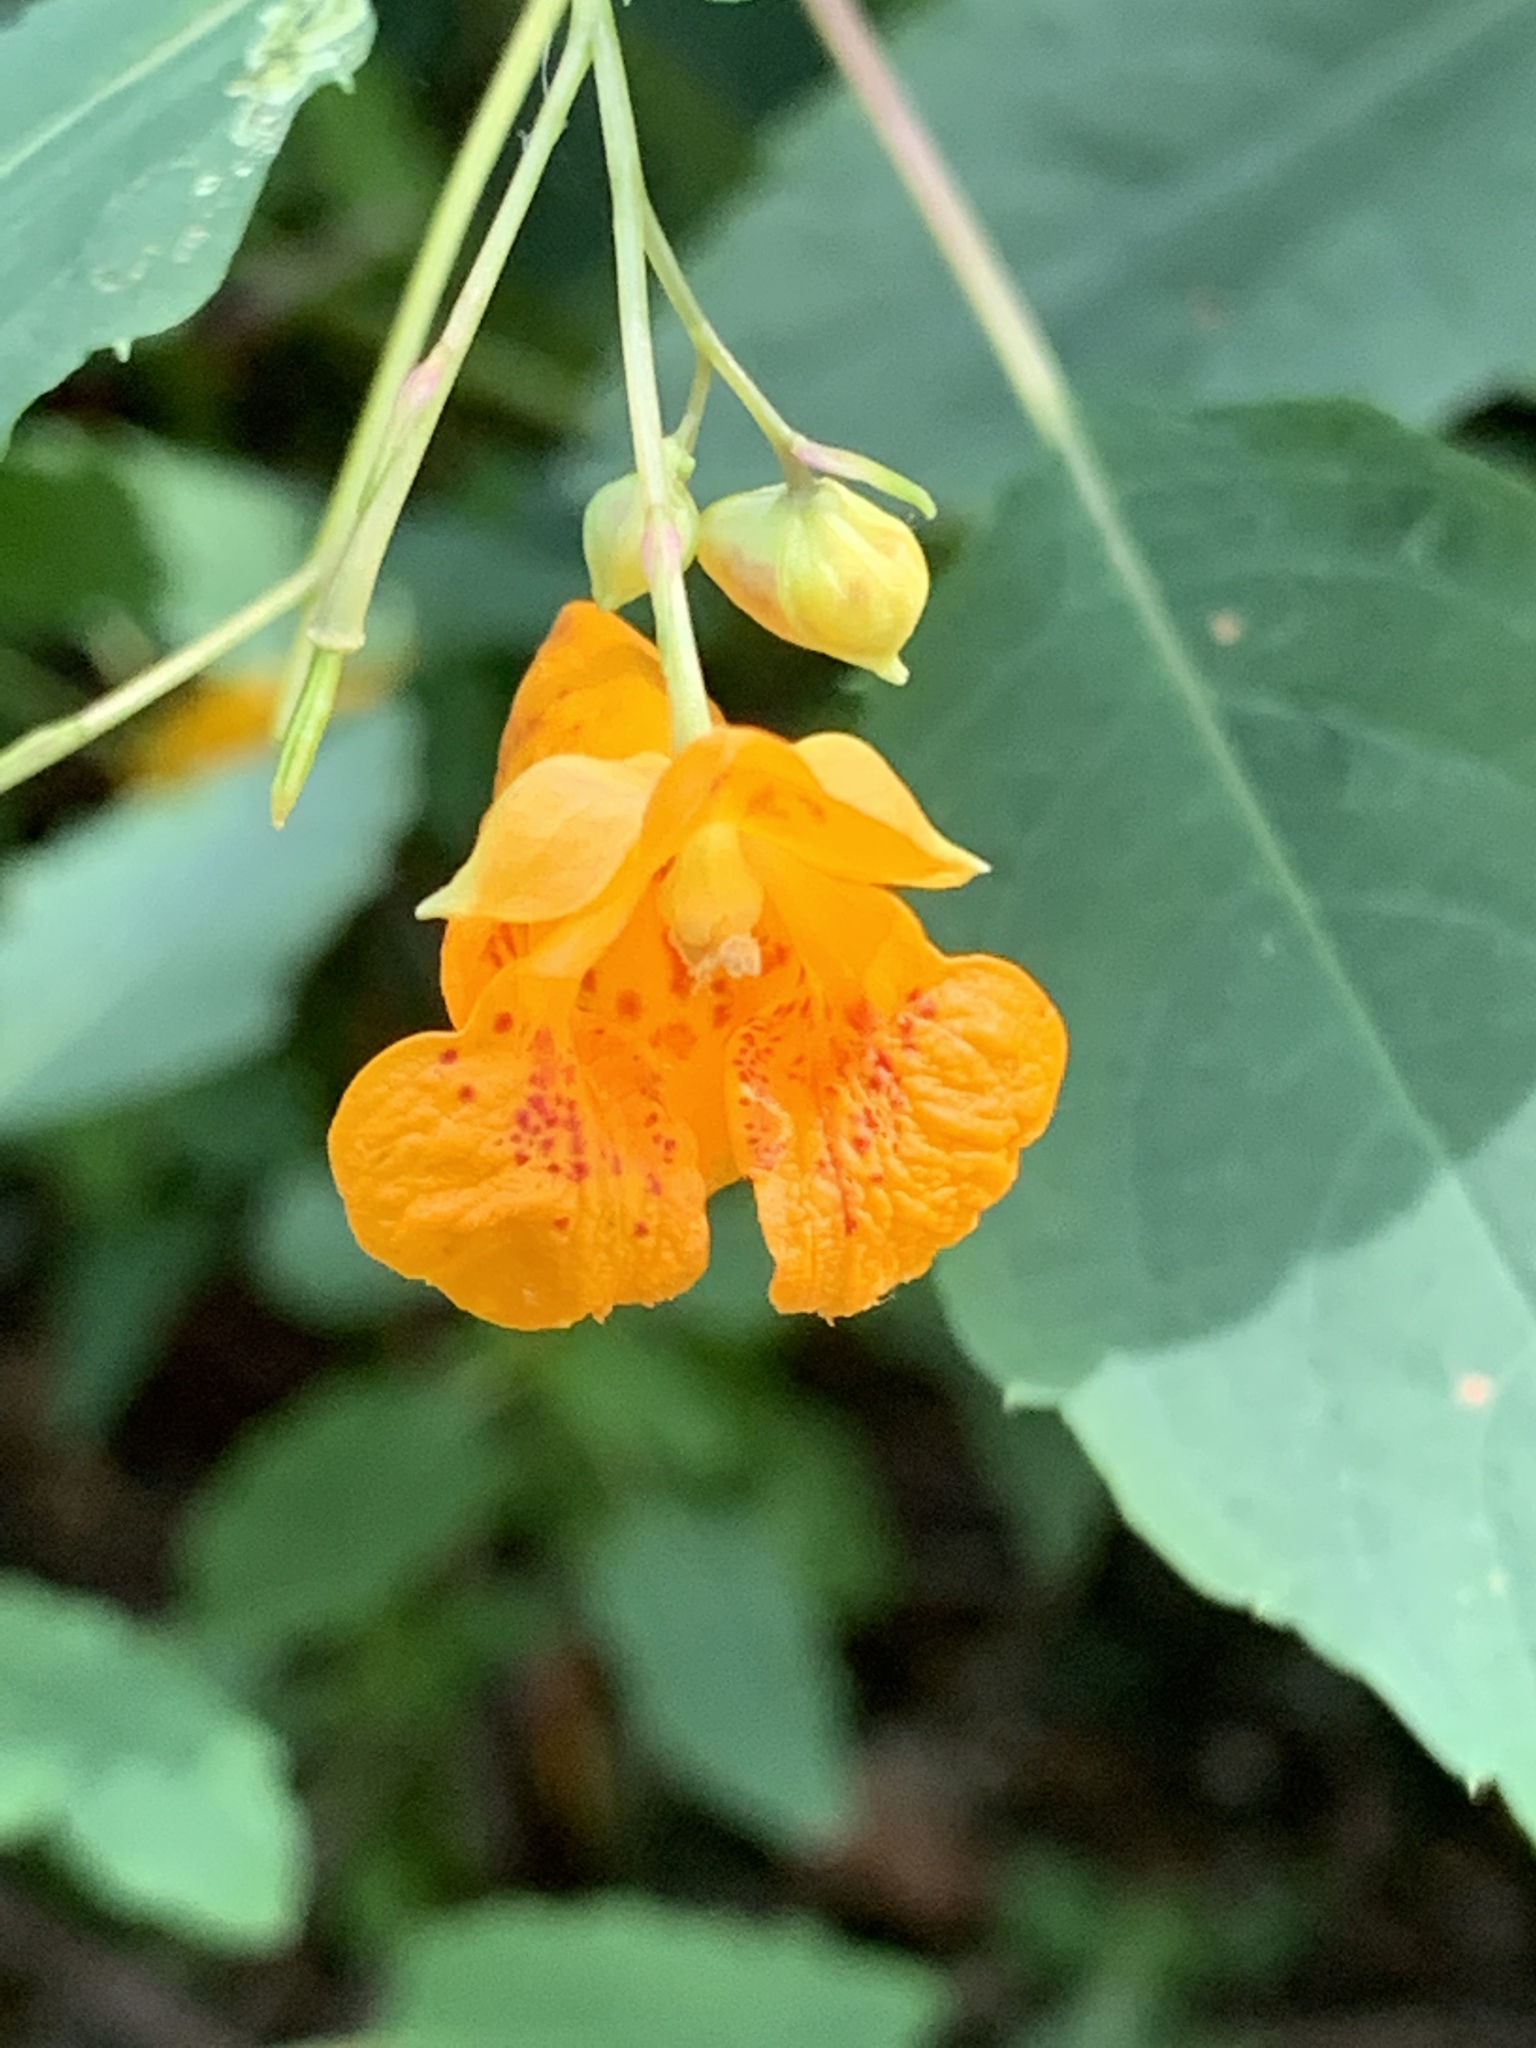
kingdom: Plantae
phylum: Tracheophyta
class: Magnoliopsida
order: Ericales
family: Balsaminaceae
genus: Impatiens
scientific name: Impatiens capensis
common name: Orange balsam
